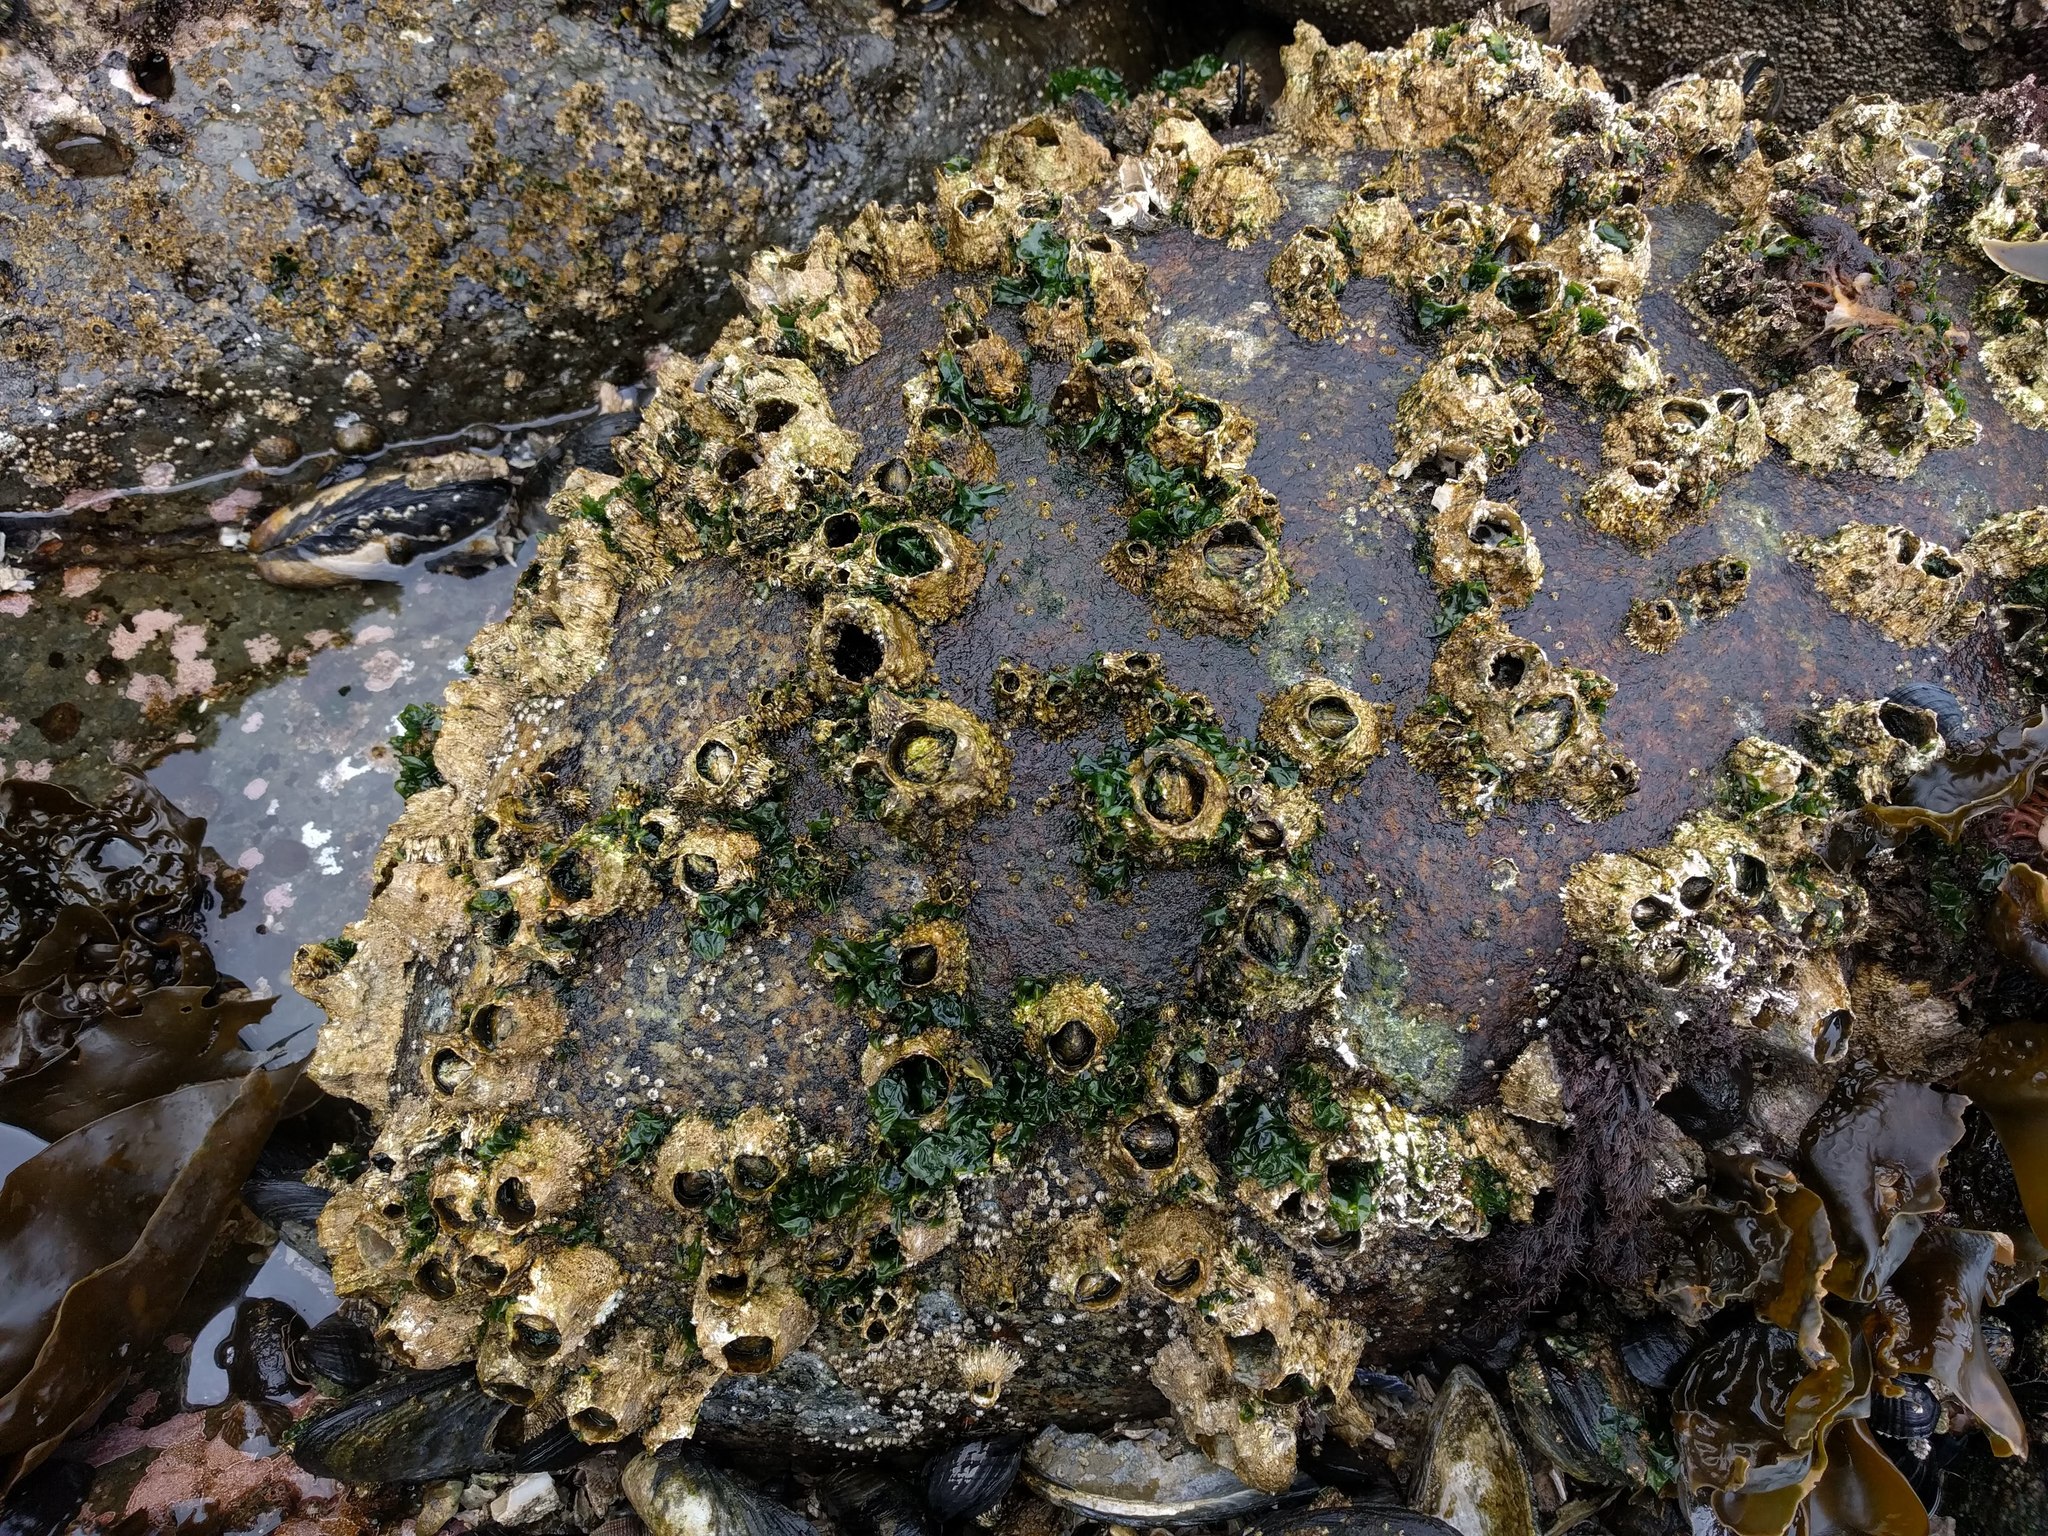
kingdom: Animalia
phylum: Arthropoda
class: Maxillopoda
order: Sessilia
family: Archaeobalanidae
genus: Semibalanus
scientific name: Semibalanus cariosus
